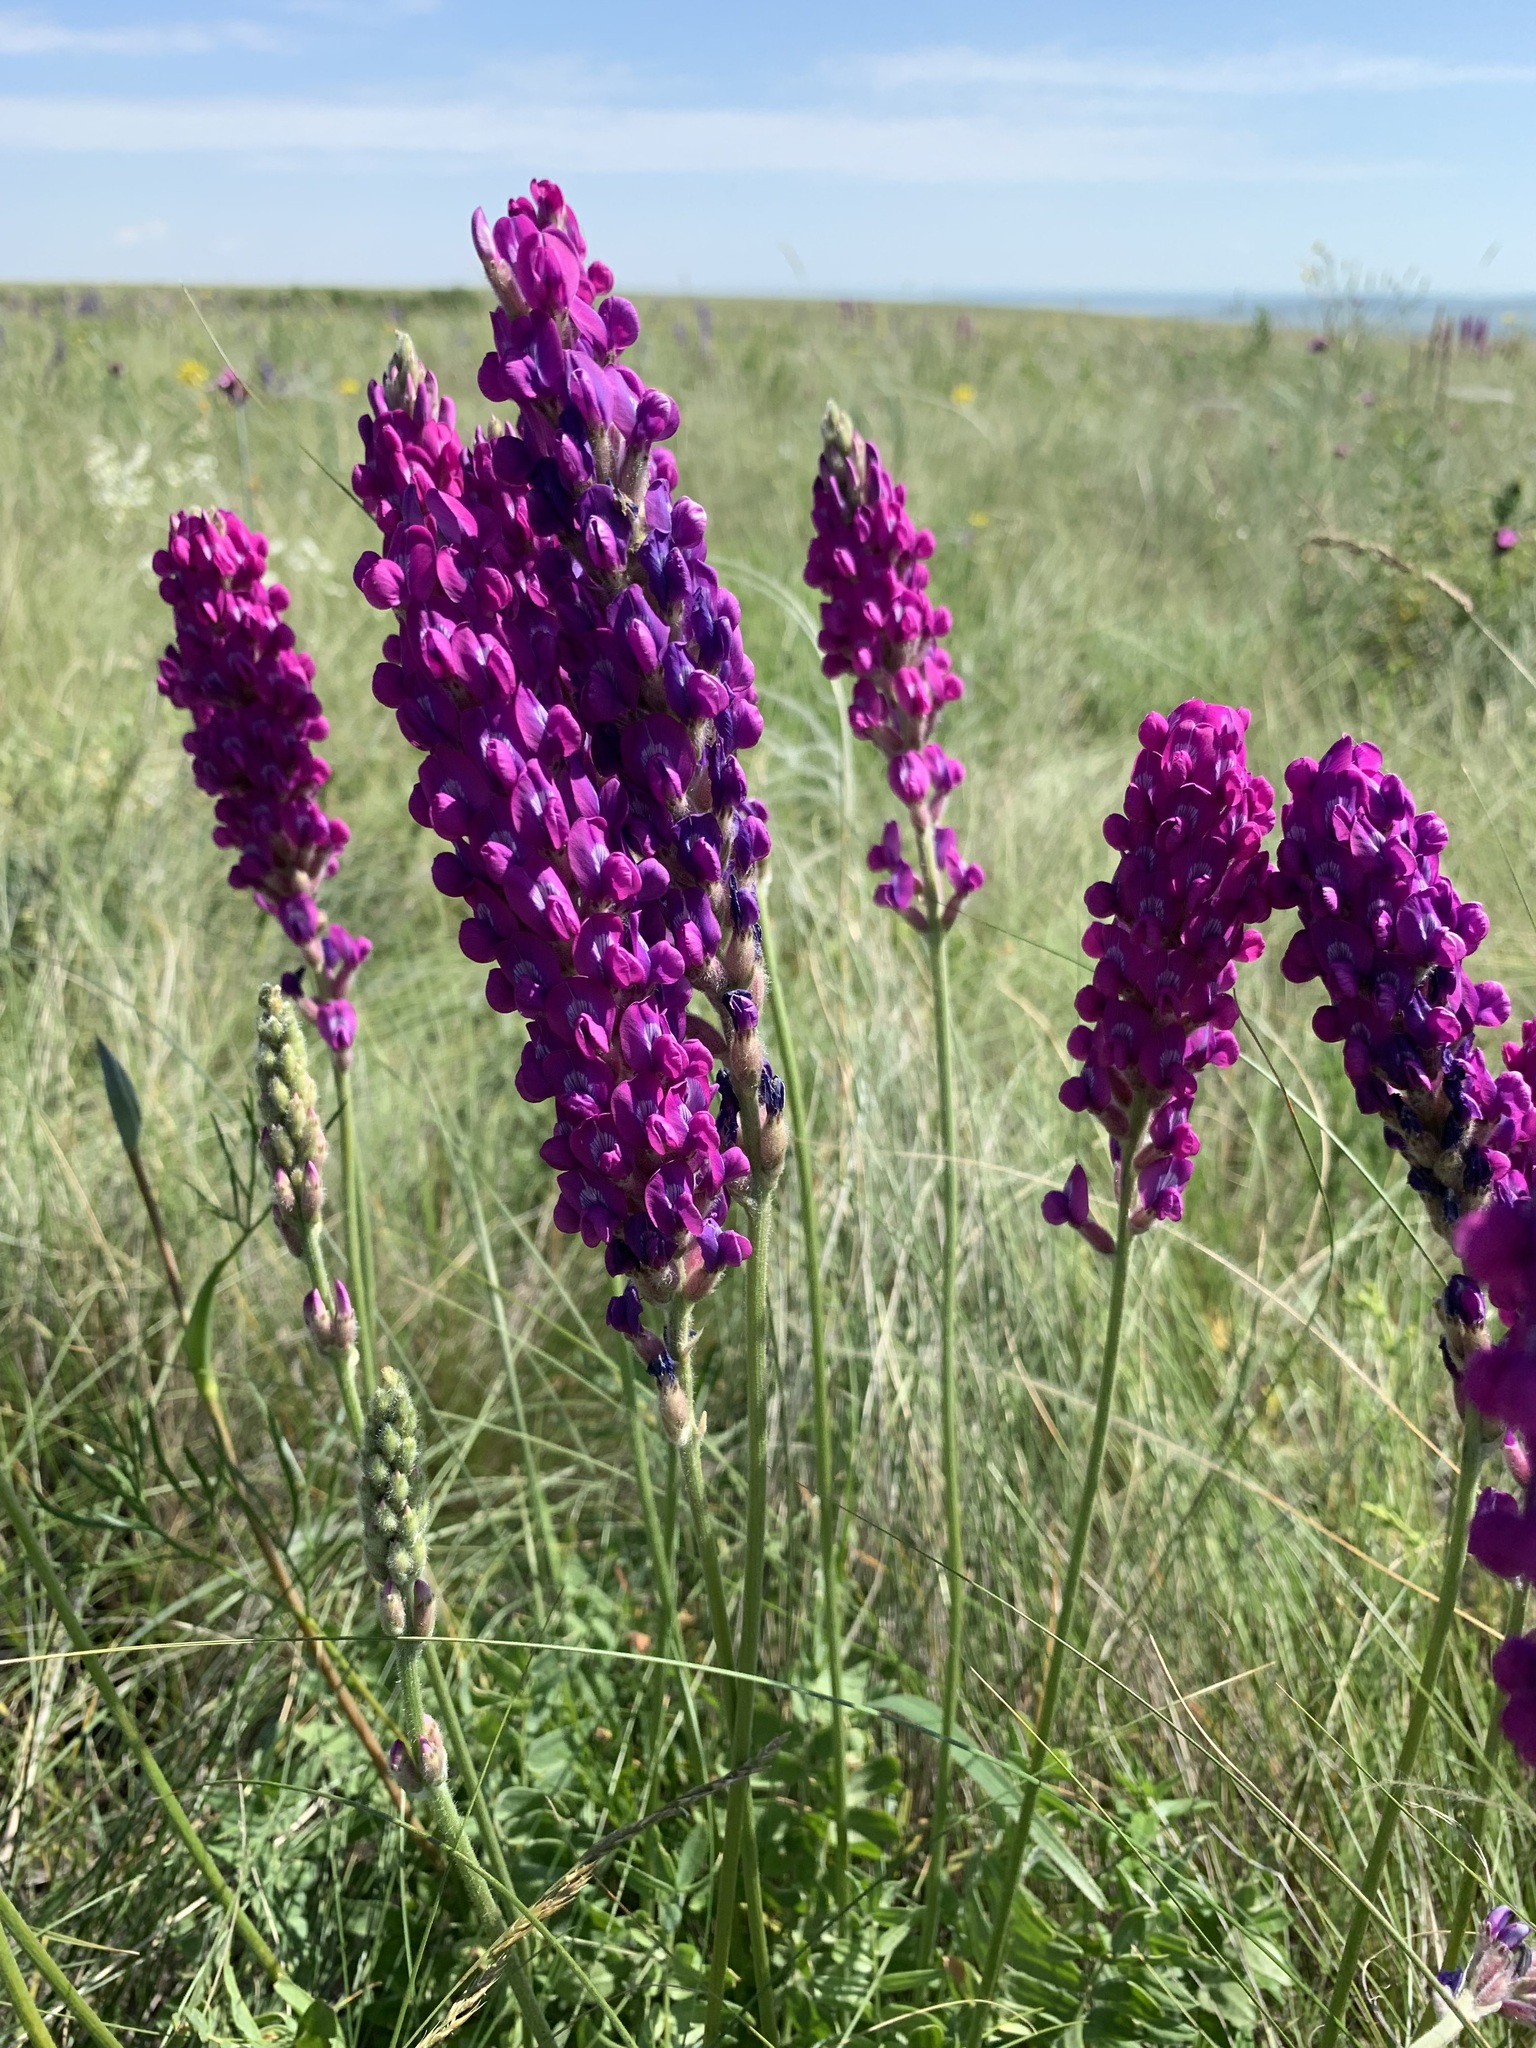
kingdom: Plantae
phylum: Tracheophyta
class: Magnoliopsida
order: Fabales
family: Fabaceae
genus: Oxytropis
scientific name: Oxytropis kasakorum
